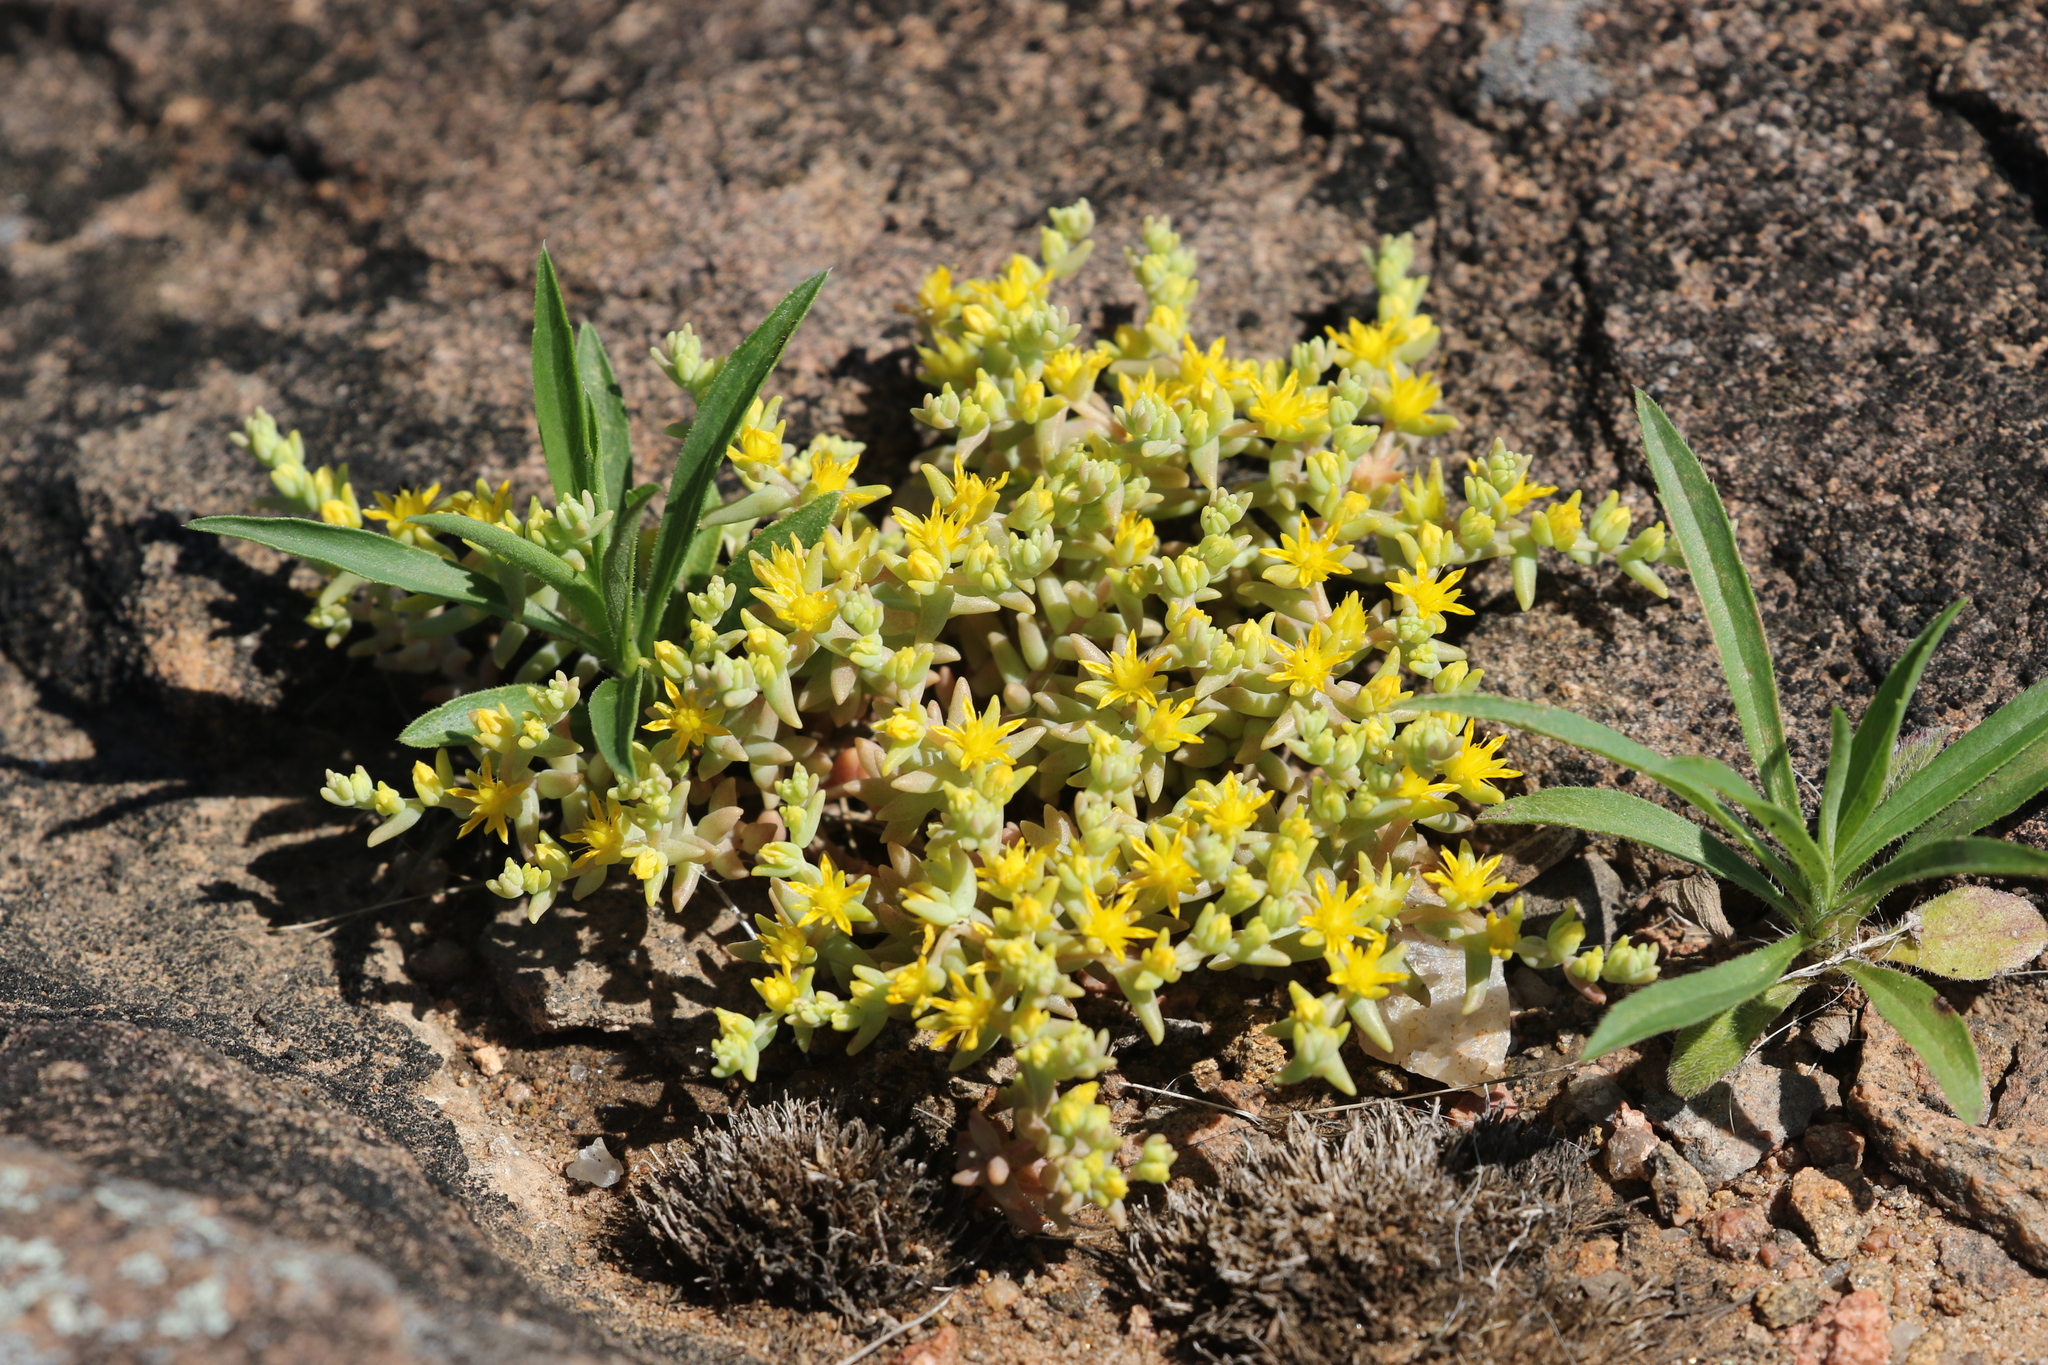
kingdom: Plantae
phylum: Tracheophyta
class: Magnoliopsida
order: Saxifragales
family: Crassulaceae
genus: Sedum
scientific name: Sedum nuttallii
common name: Yellow stonecrop
